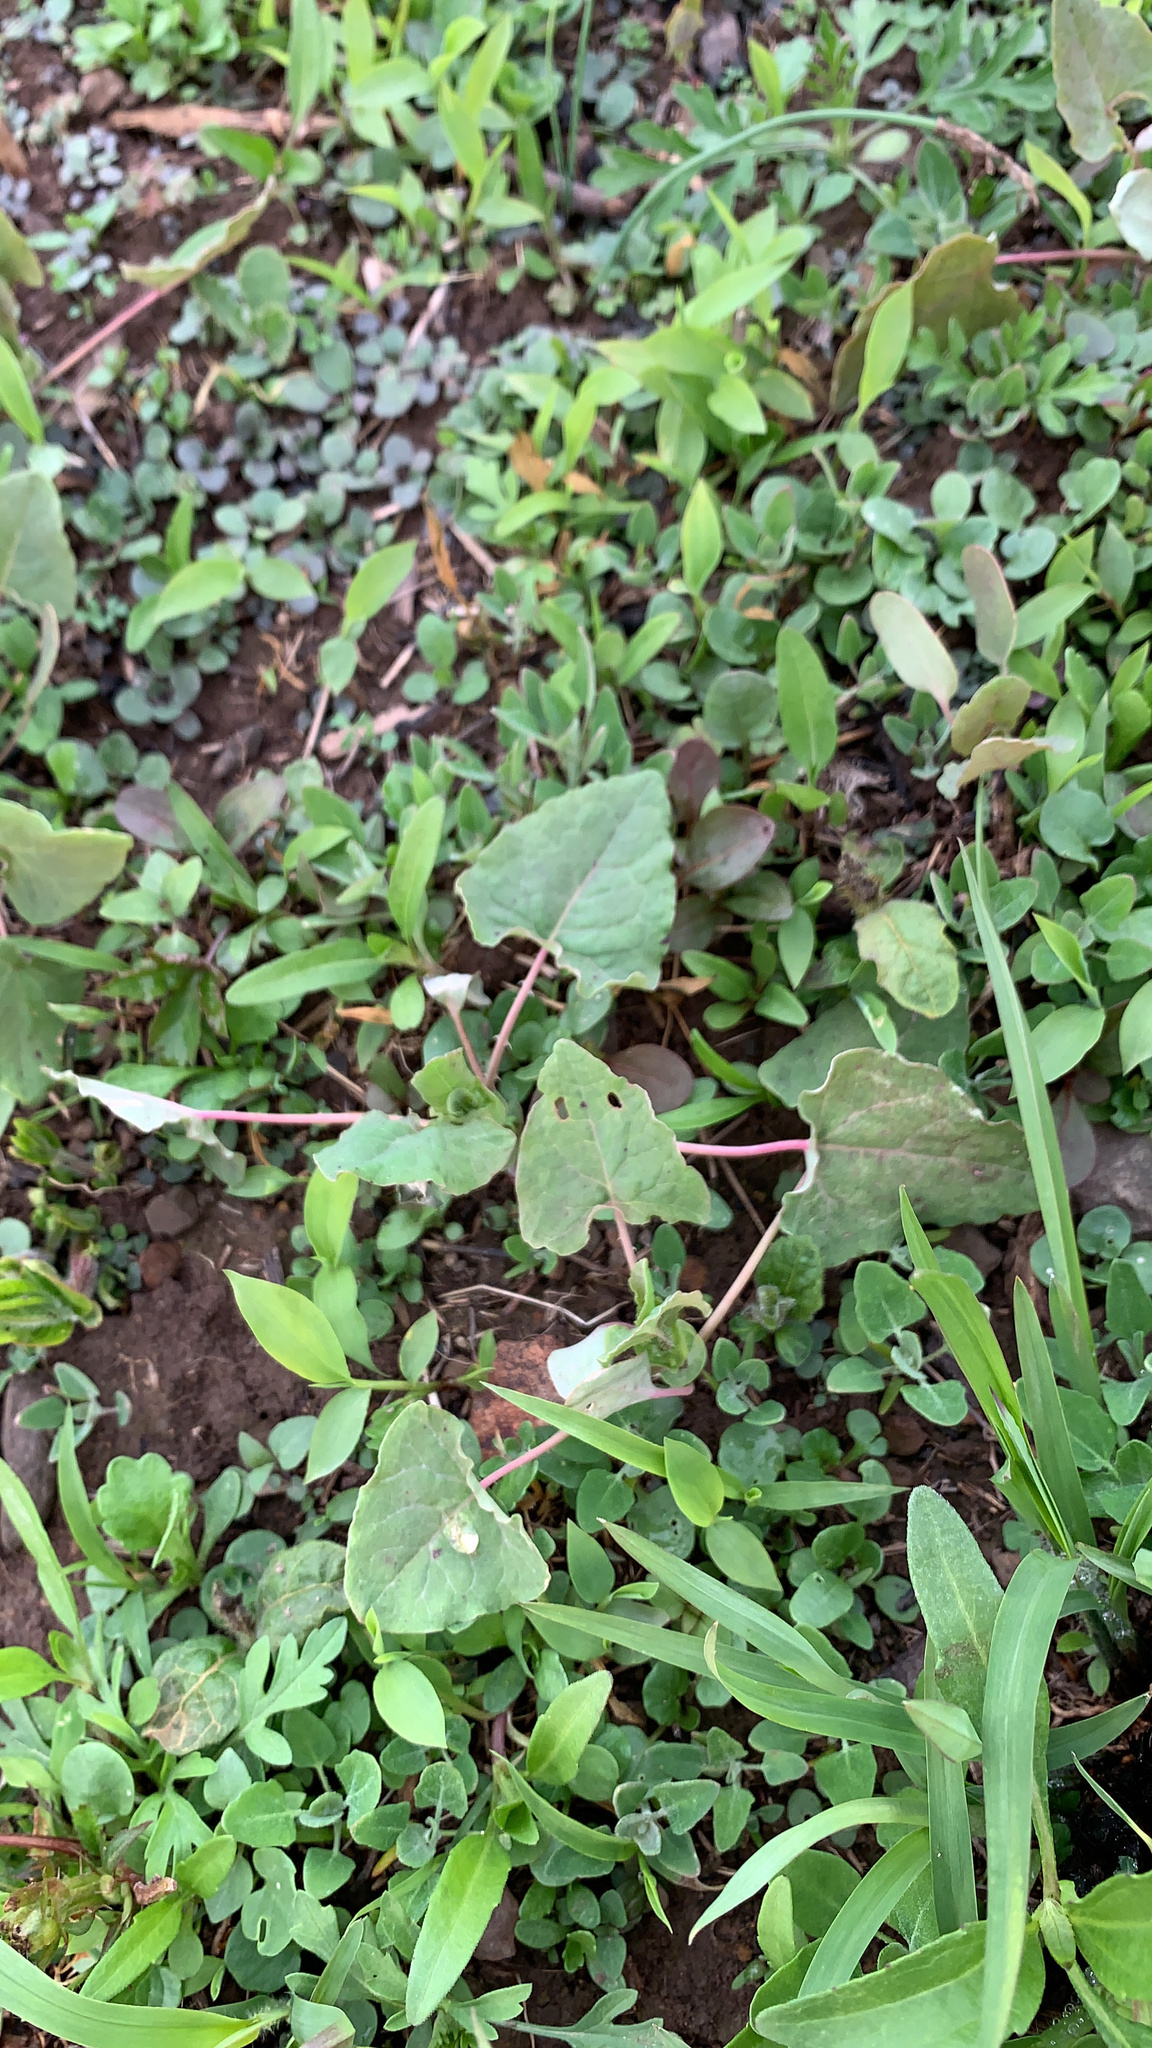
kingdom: Plantae
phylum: Tracheophyta
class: Magnoliopsida
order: Caryophyllales
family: Polygonaceae
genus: Persicaria
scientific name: Persicaria perfoliata
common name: Asiatic tearthumb
